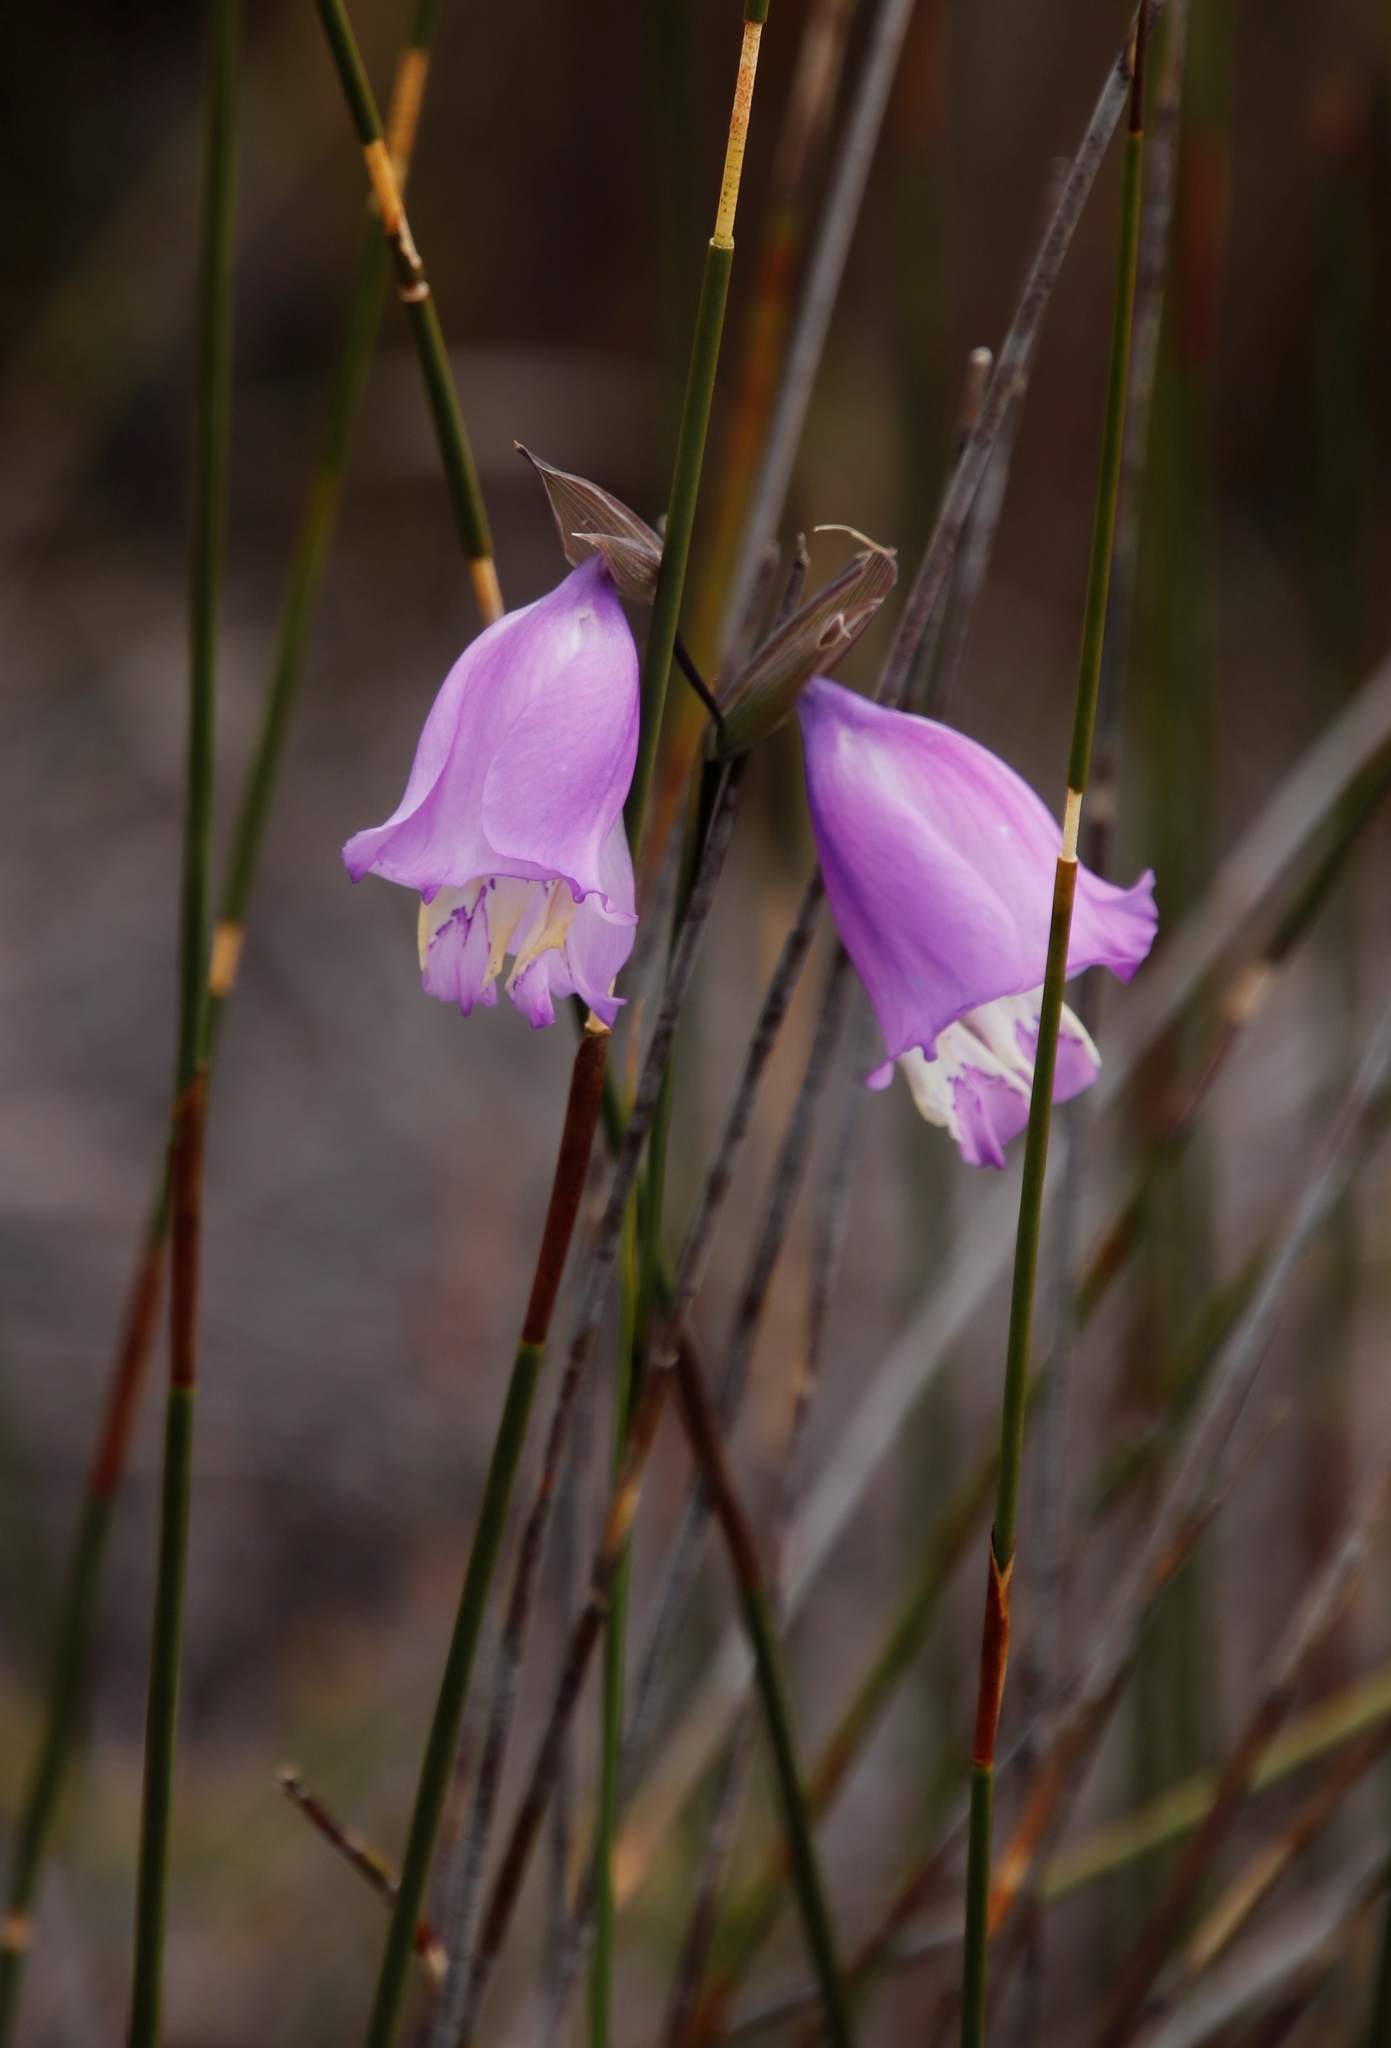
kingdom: Plantae
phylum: Tracheophyta
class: Liliopsida
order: Asparagales
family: Iridaceae
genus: Gladiolus
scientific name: Gladiolus bullatus
